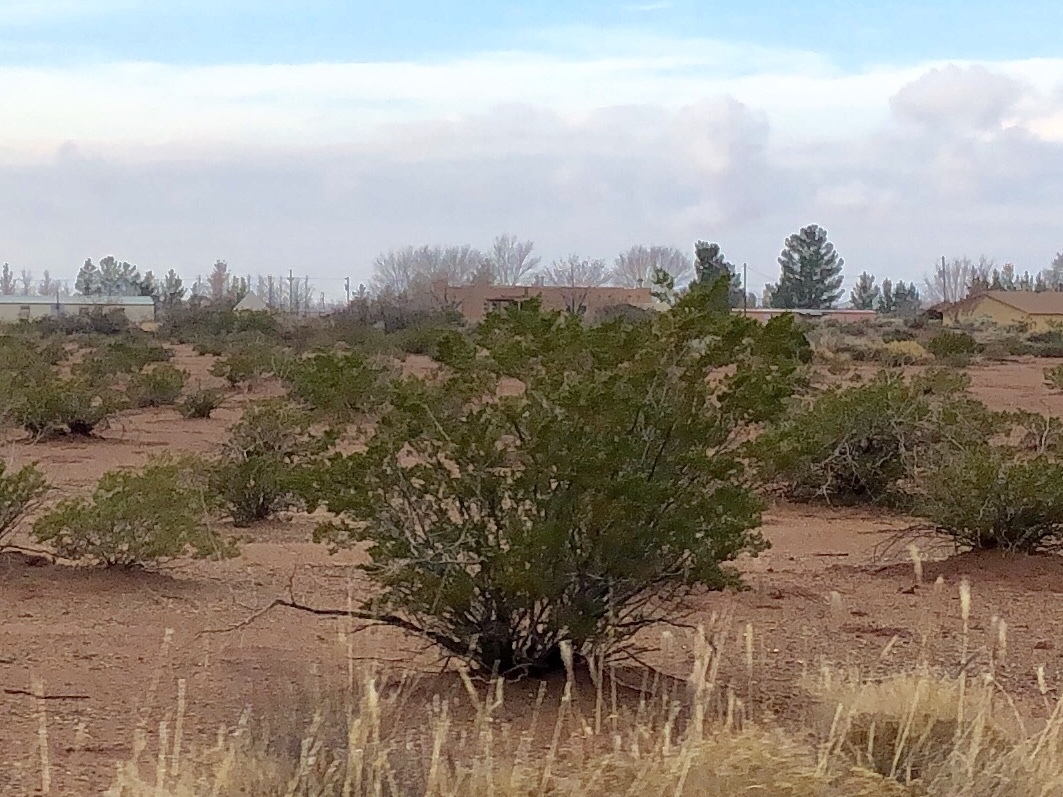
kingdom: Plantae
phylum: Tracheophyta
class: Magnoliopsida
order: Zygophyllales
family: Zygophyllaceae
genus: Larrea
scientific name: Larrea tridentata
